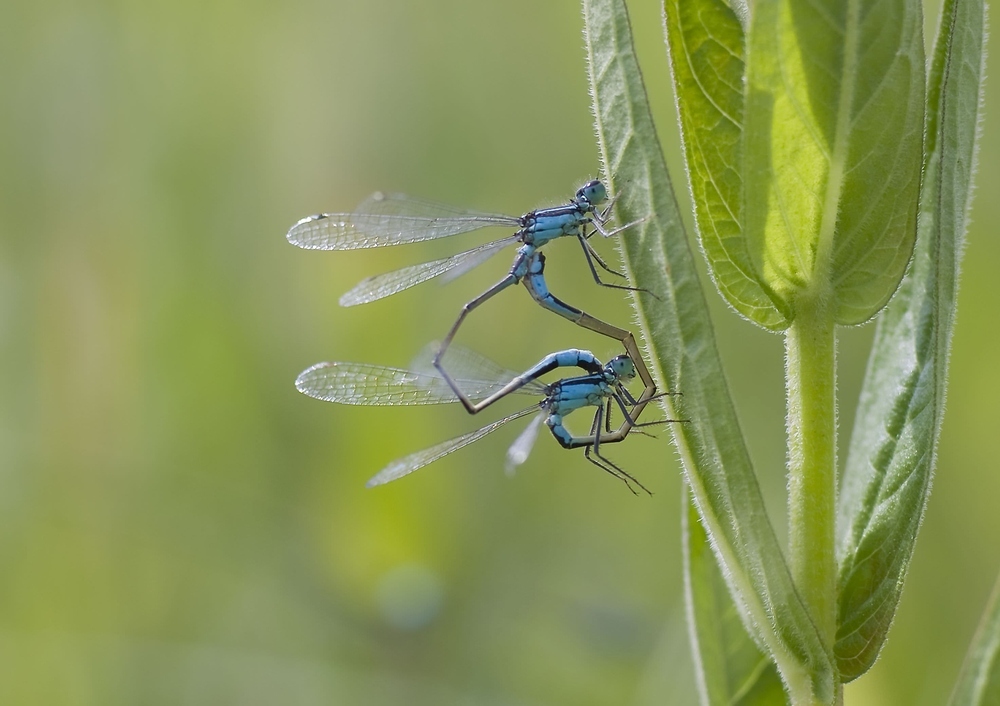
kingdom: Animalia
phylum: Arthropoda
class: Insecta
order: Odonata
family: Coenagrionidae
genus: Ischnura
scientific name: Ischnura elegans
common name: Blue-tailed damselfly
